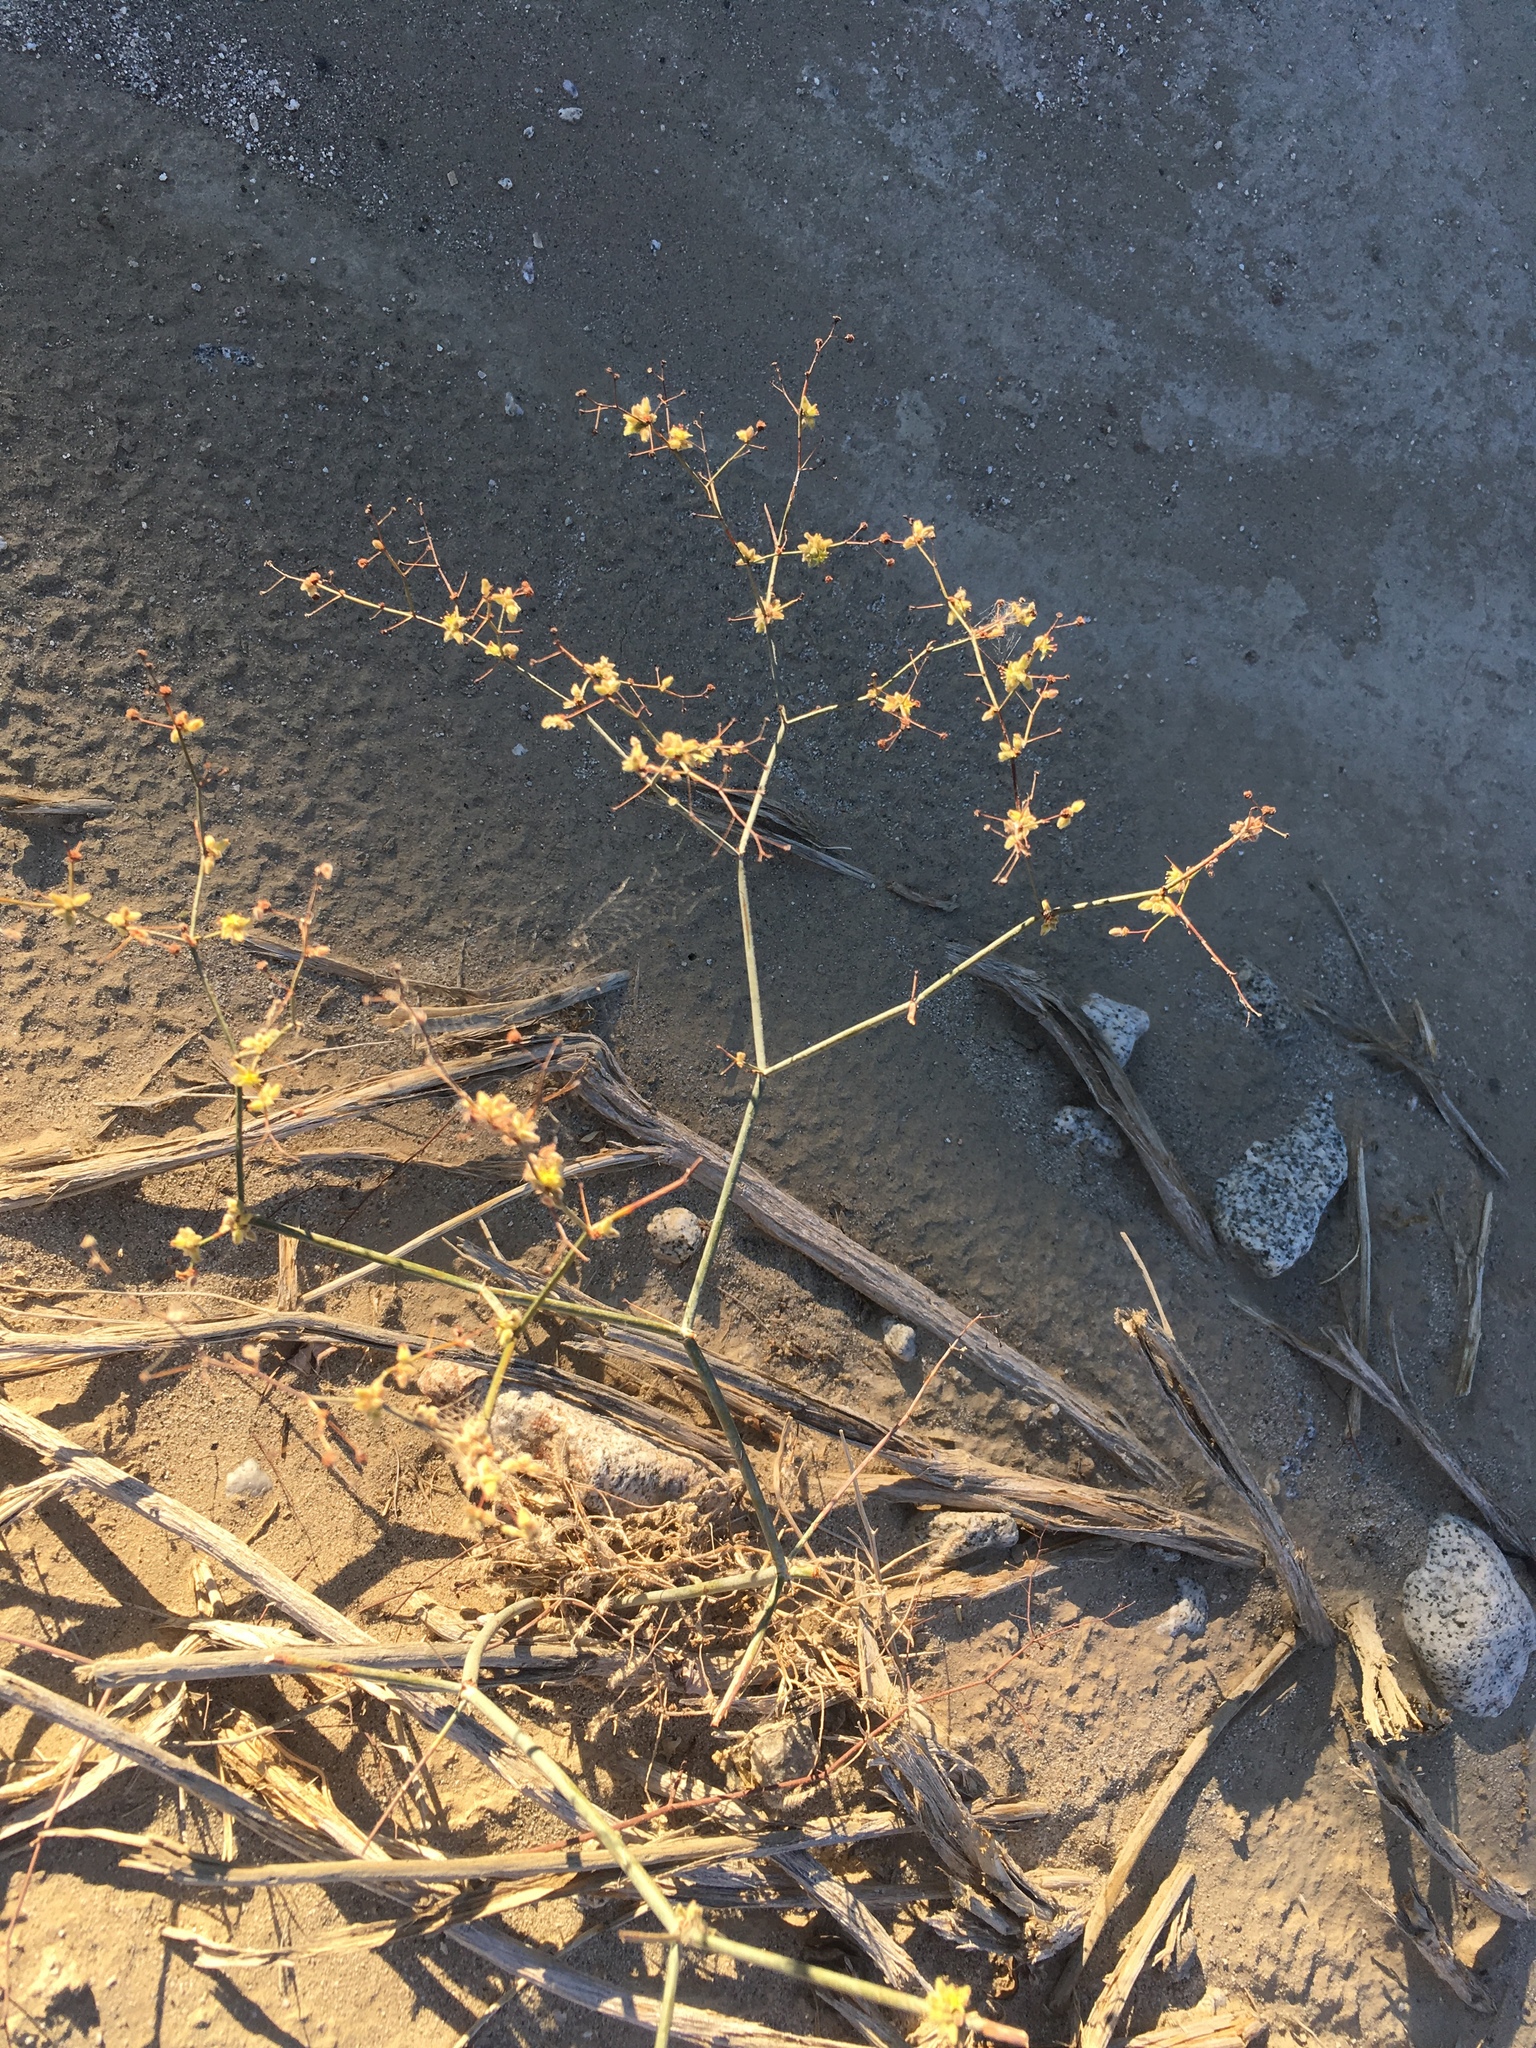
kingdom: Plantae
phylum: Tracheophyta
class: Magnoliopsida
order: Caryophyllales
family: Polygonaceae
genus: Eriogonum
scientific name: Eriogonum inflatum
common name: Desert trumpet
